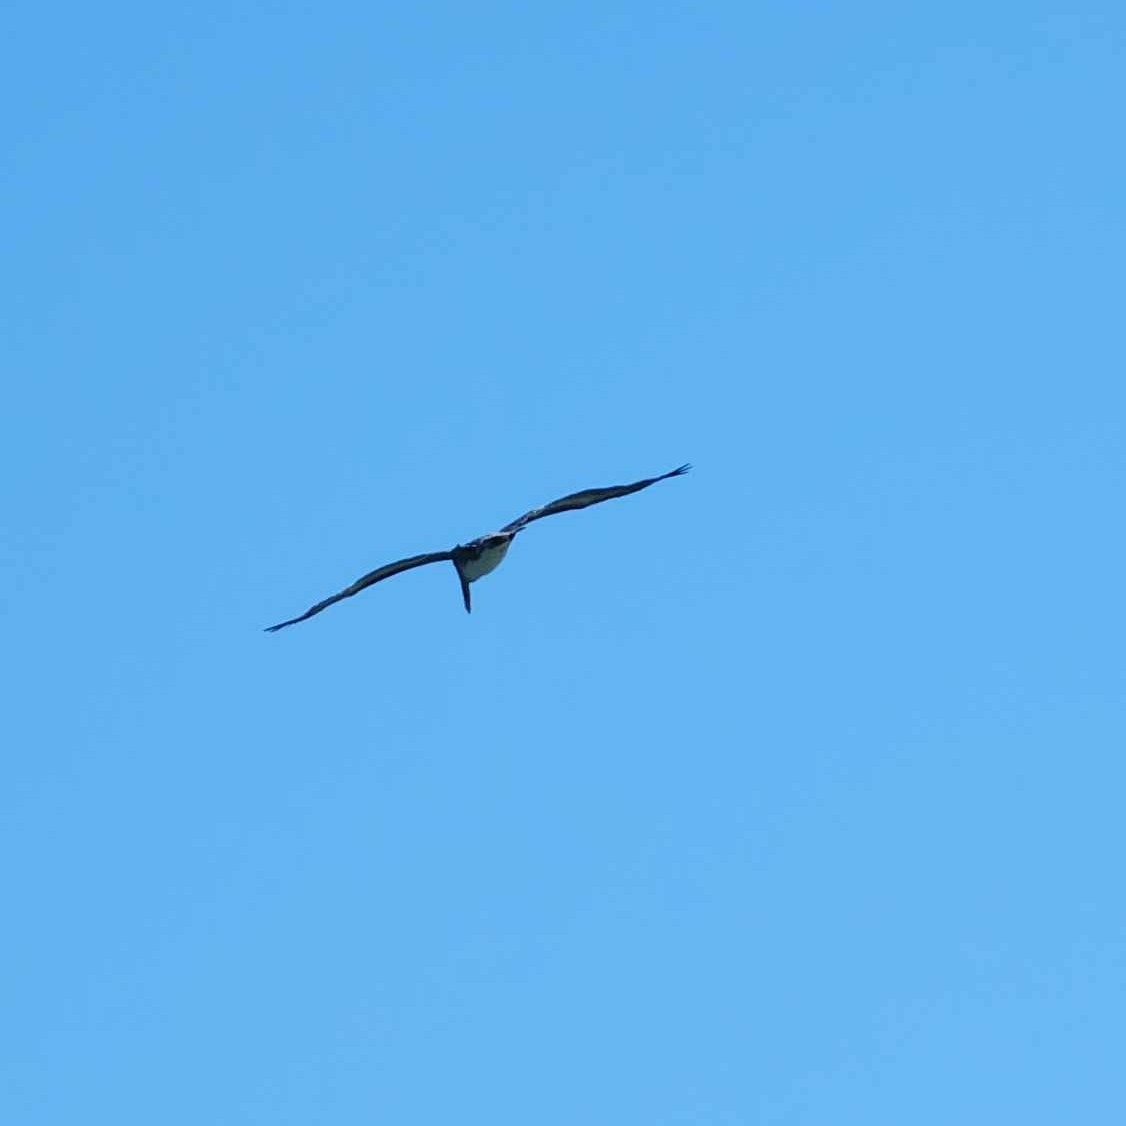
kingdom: Animalia
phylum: Chordata
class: Aves
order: Pelecaniformes
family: Pelecanidae
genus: Pelecanus
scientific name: Pelecanus occidentalis
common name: Brown pelican
